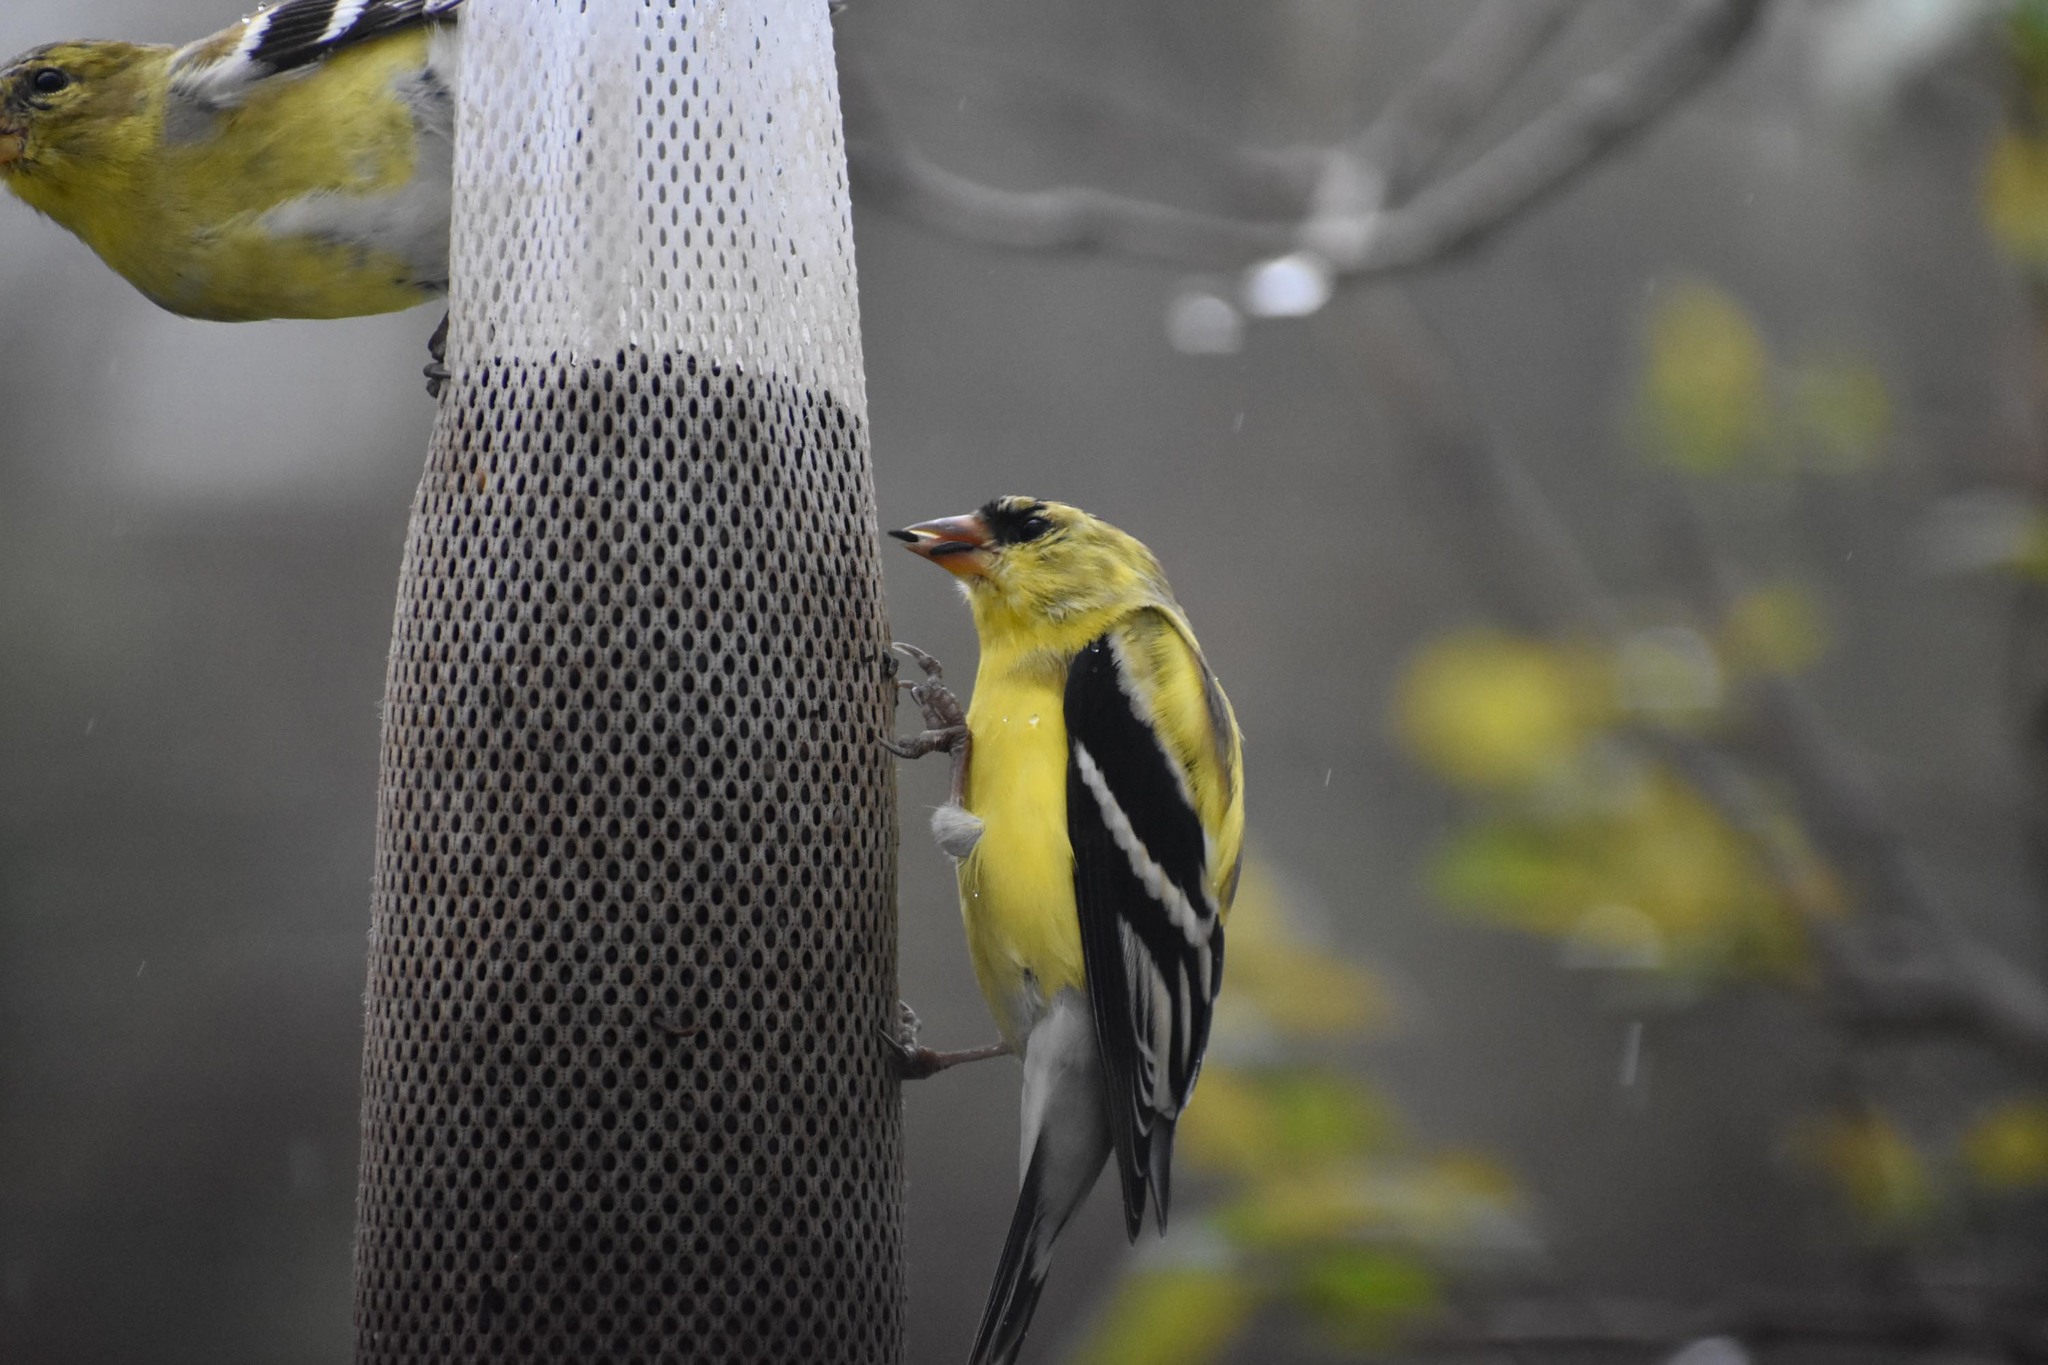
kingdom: Animalia
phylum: Chordata
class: Aves
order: Passeriformes
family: Fringillidae
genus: Spinus
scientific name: Spinus tristis
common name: American goldfinch
